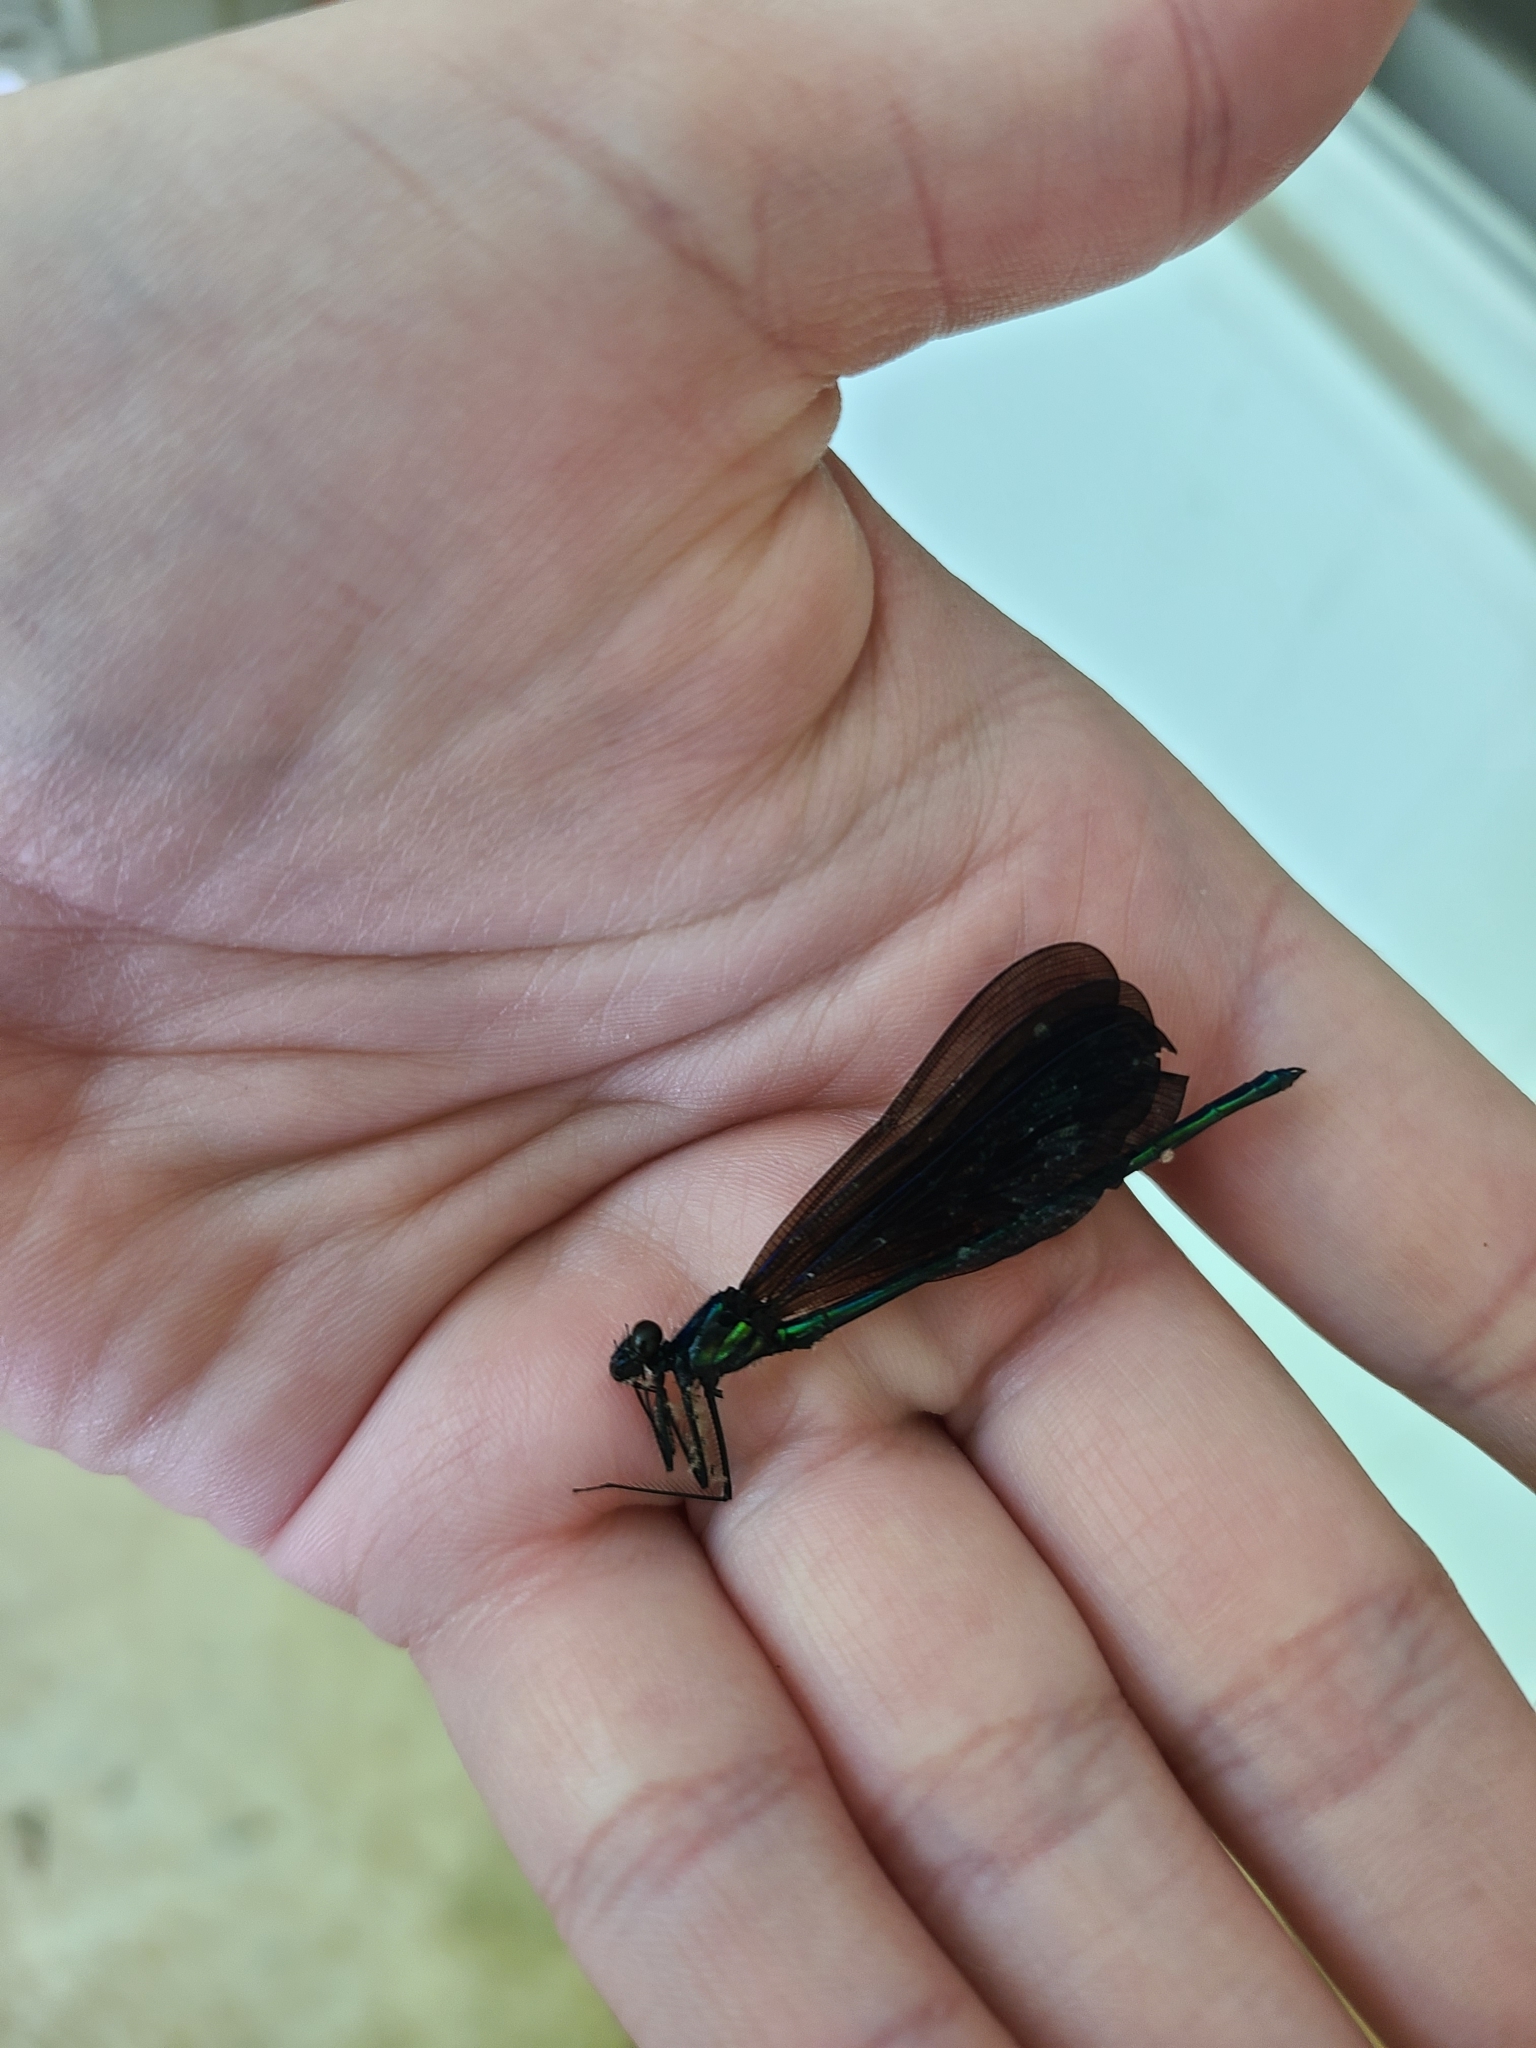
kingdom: Animalia
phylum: Arthropoda
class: Insecta
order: Odonata
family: Calopterygidae
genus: Calopteryx
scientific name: Calopteryx maculata
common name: Ebony jewelwing
